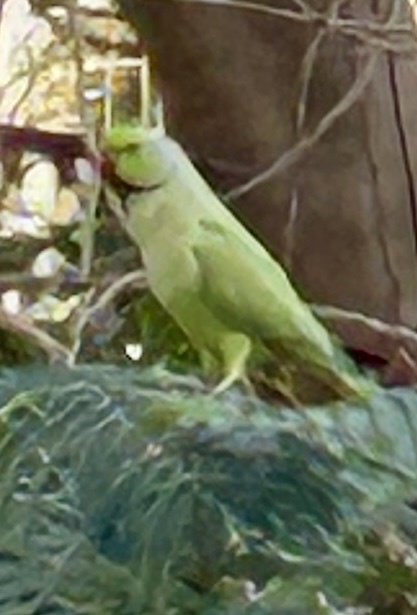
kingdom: Animalia
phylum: Chordata
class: Aves
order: Psittaciformes
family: Psittacidae
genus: Psittacula
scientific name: Psittacula krameri
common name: Rose-ringed parakeet
